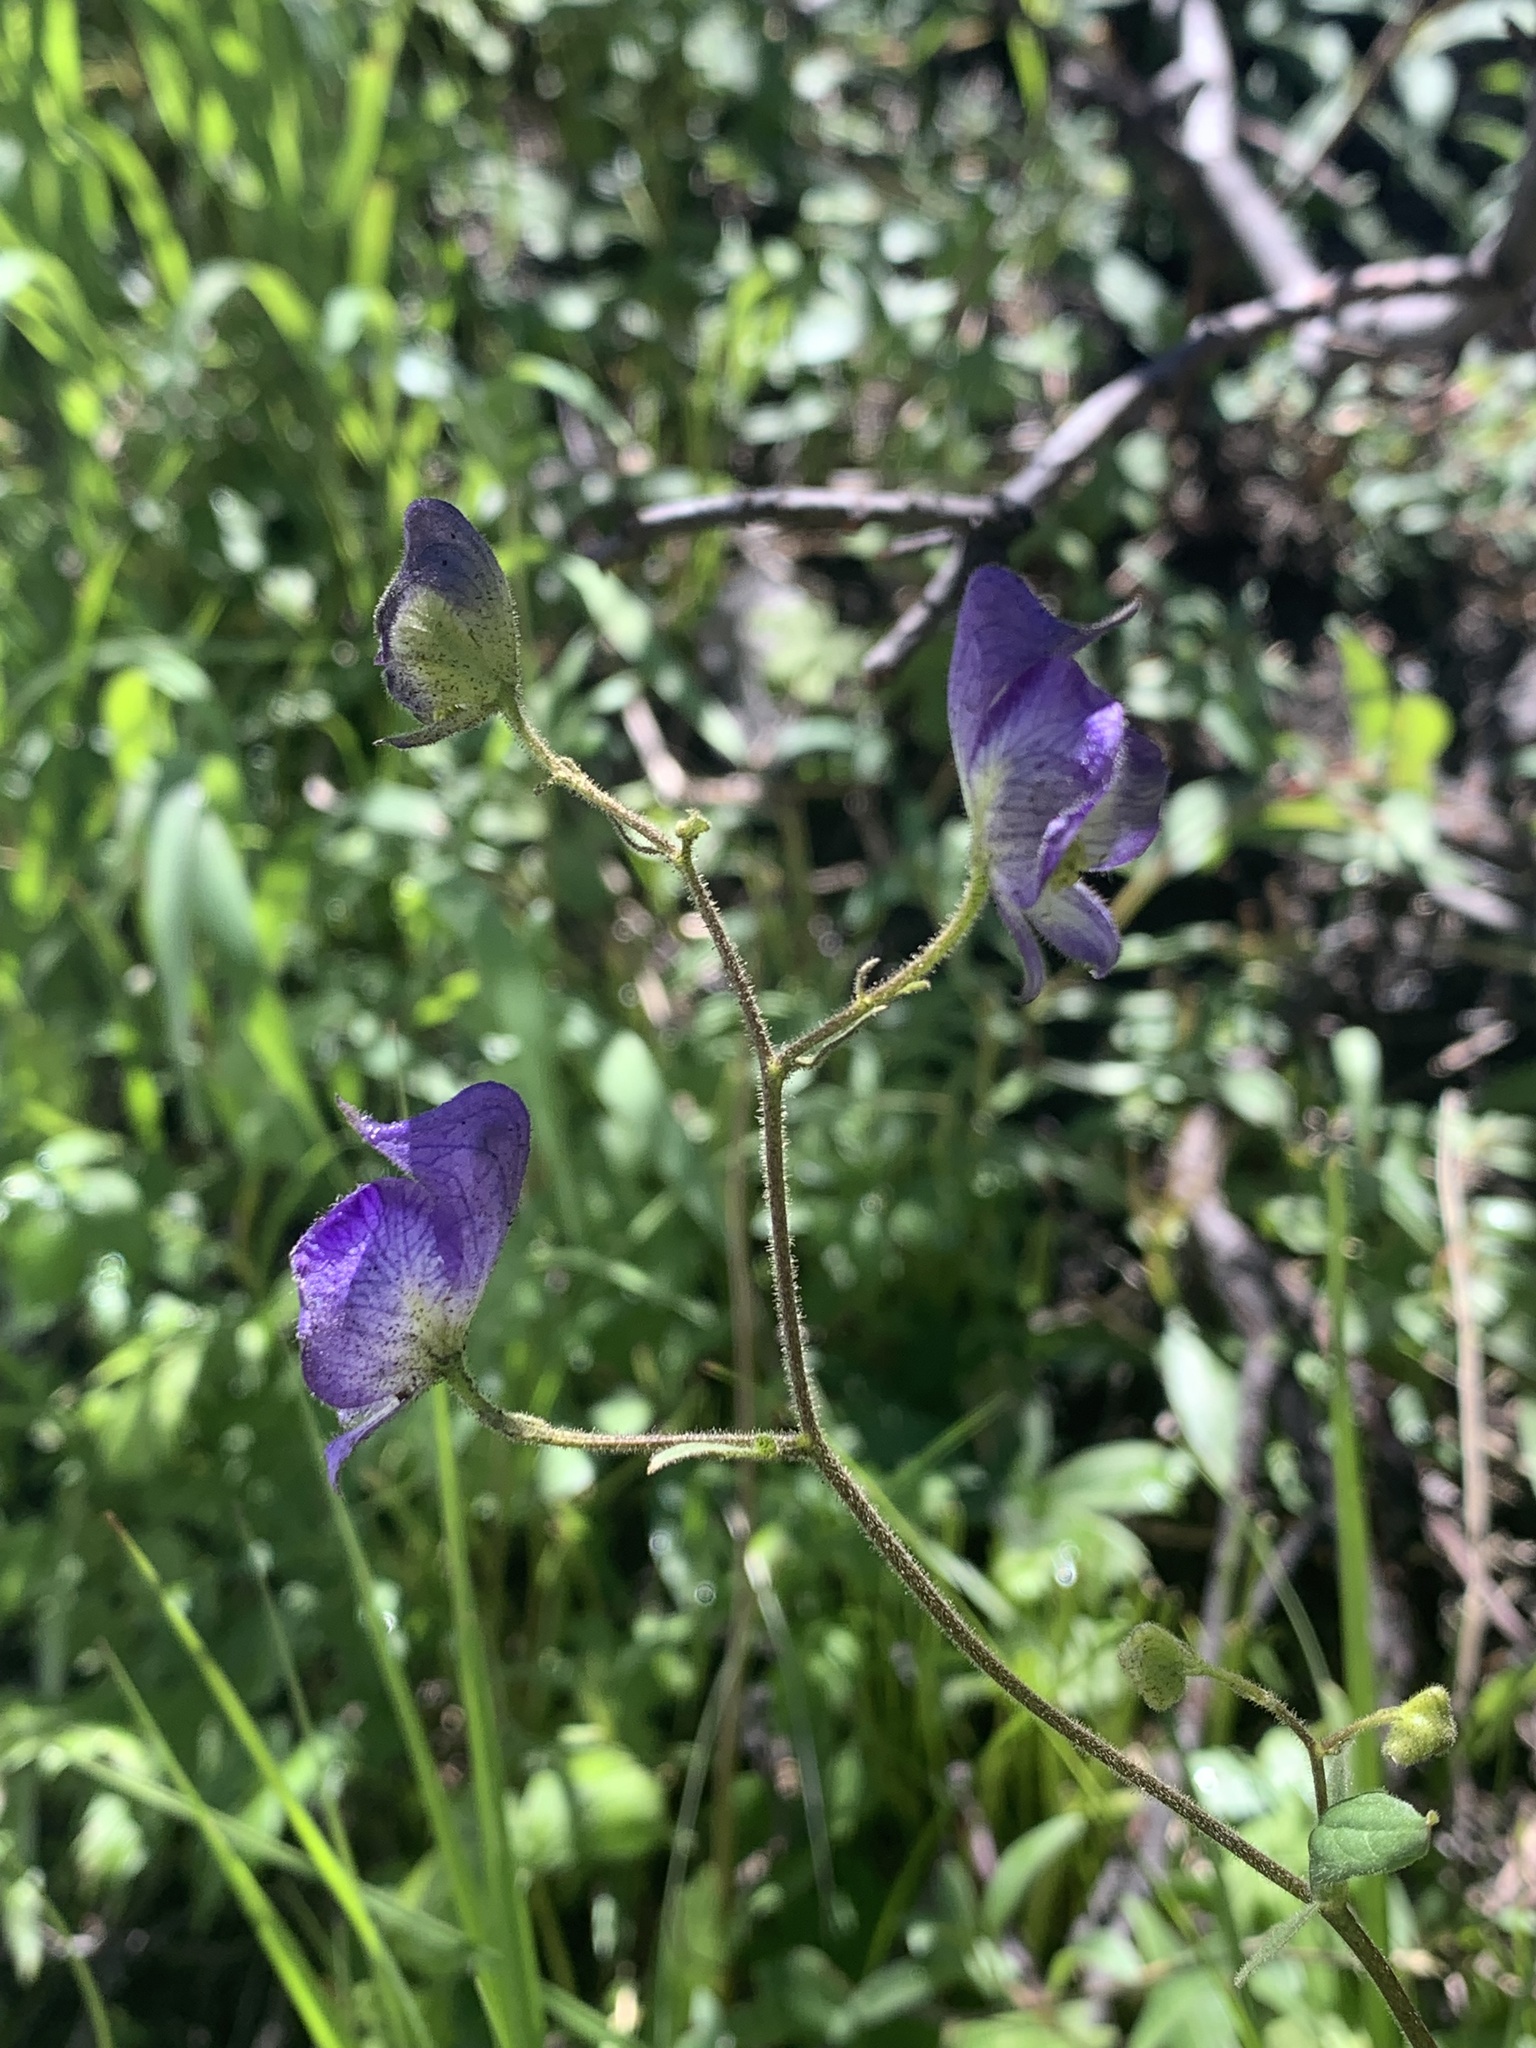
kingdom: Plantae
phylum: Tracheophyta
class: Magnoliopsida
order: Ranunculales
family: Ranunculaceae
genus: Aconitum
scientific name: Aconitum columbianum
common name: Columbia aconite
